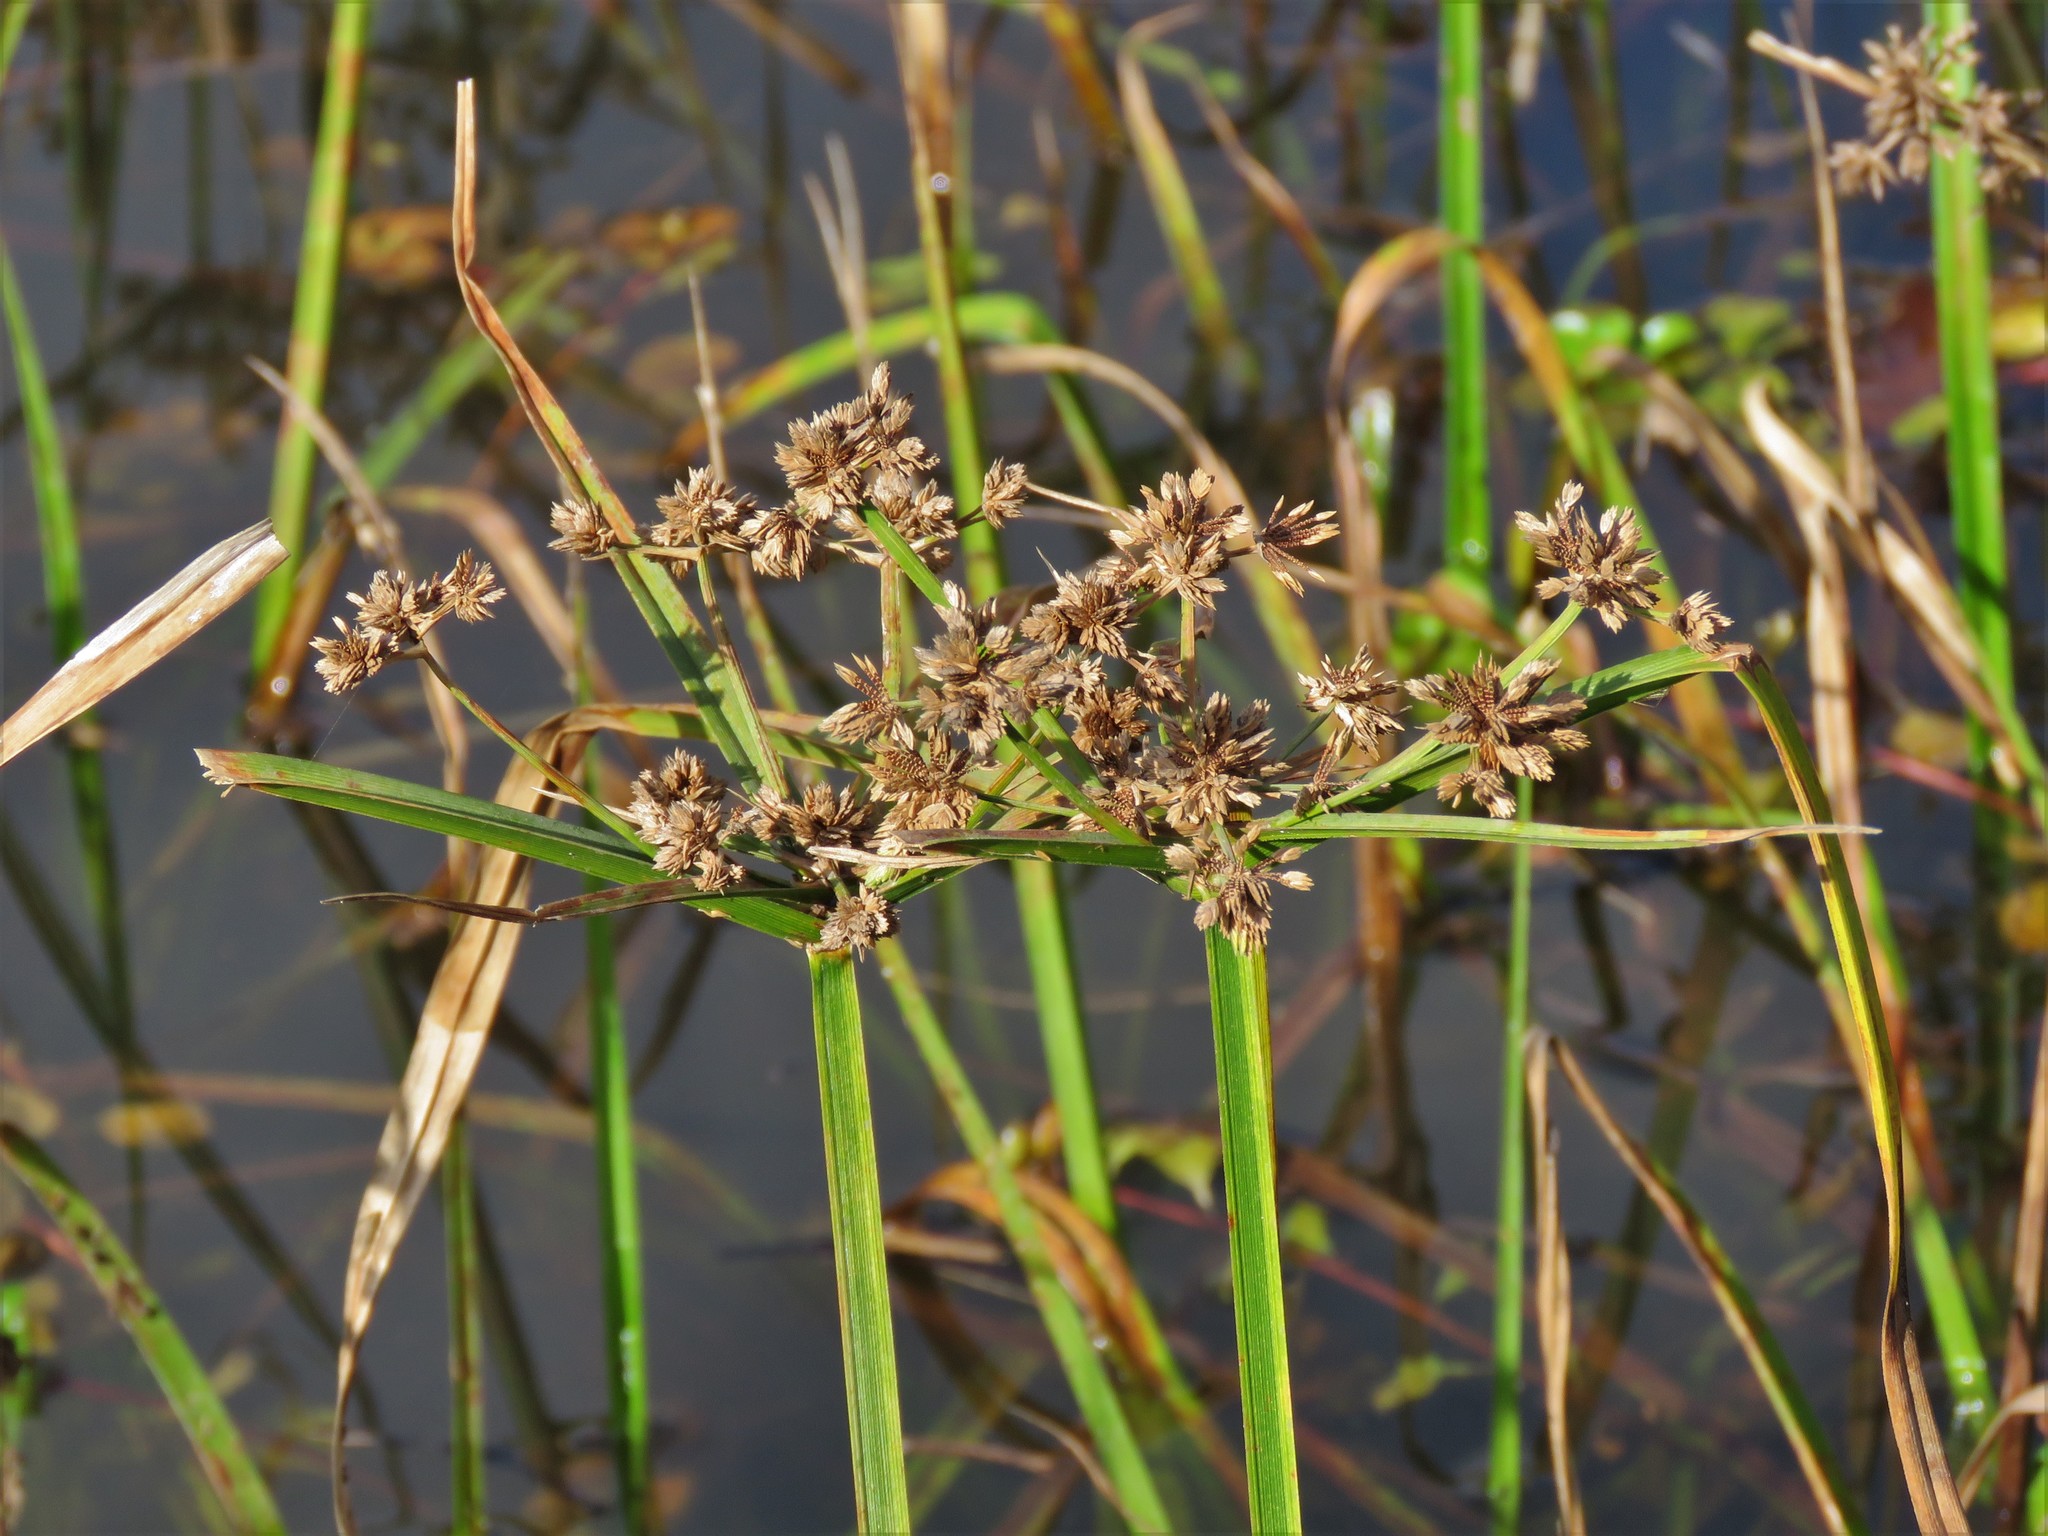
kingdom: Plantae
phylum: Tracheophyta
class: Liliopsida
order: Poales
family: Cyperaceae
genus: Cyperus
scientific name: Cyperus virens
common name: Green flatsedge
